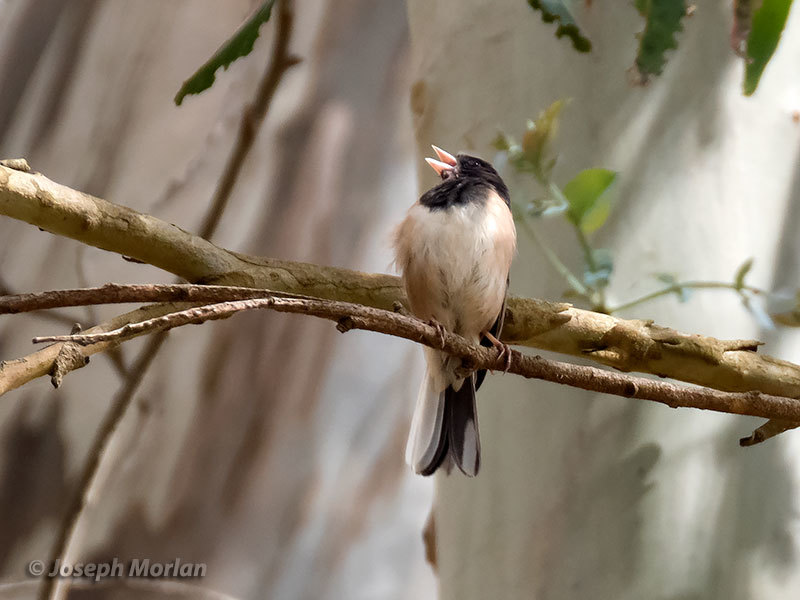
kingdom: Animalia
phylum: Chordata
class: Aves
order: Passeriformes
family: Passerellidae
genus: Junco
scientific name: Junco hyemalis
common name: Dark-eyed junco
